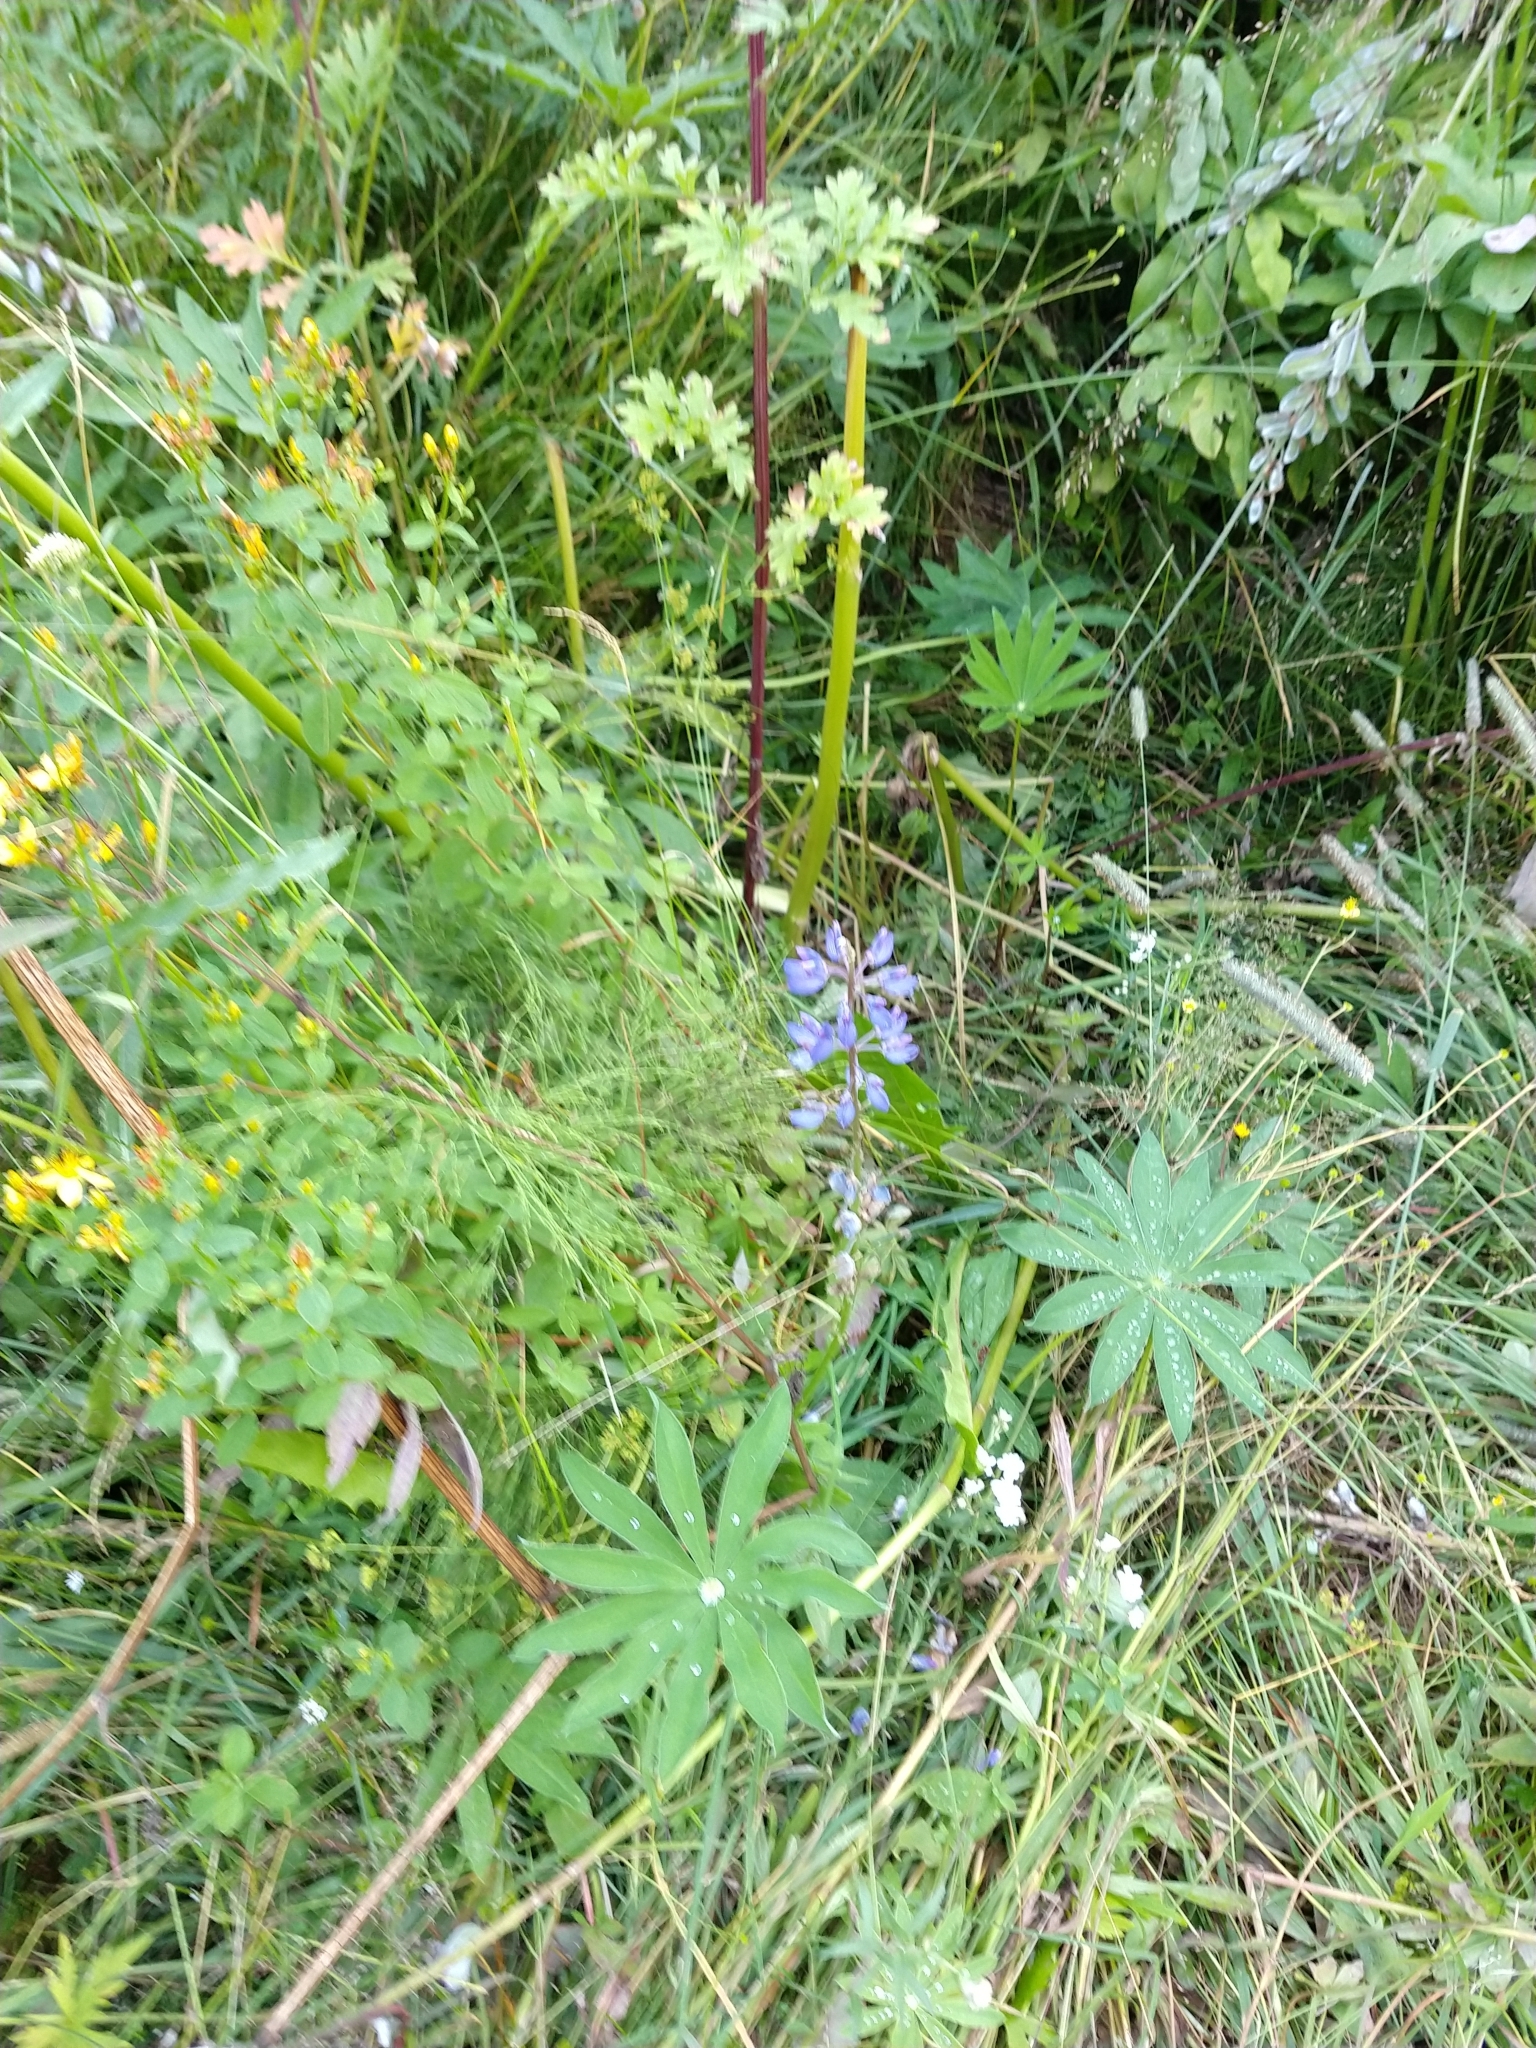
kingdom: Plantae
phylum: Tracheophyta
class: Magnoliopsida
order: Fabales
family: Fabaceae
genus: Lupinus
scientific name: Lupinus polyphyllus
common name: Garden lupin
